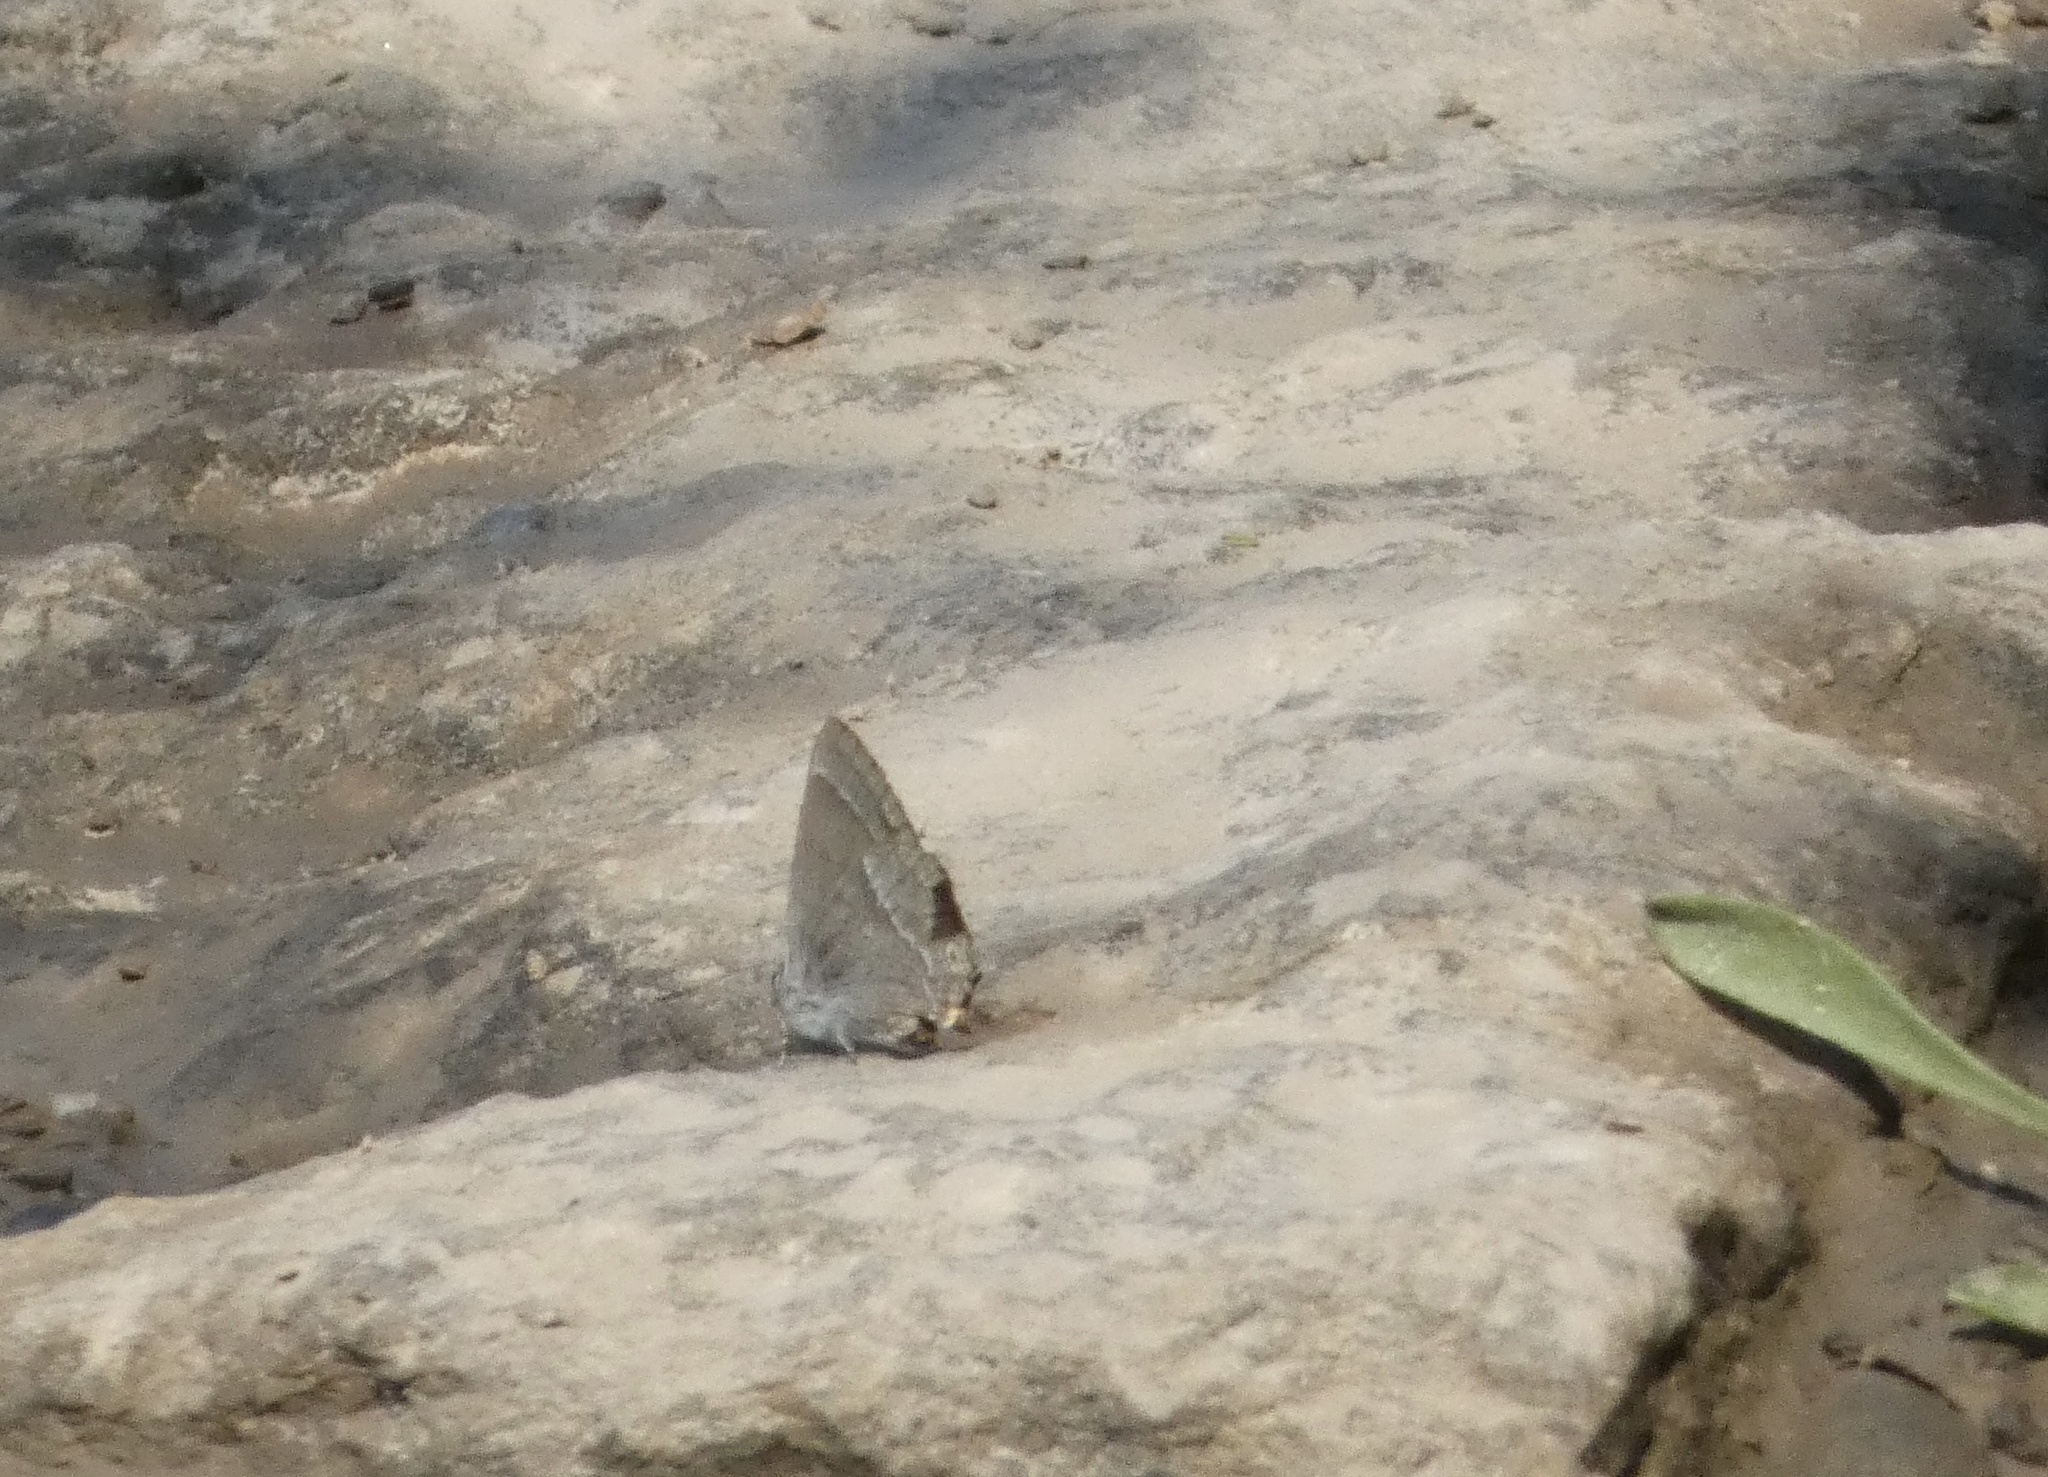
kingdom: Animalia
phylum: Arthropoda
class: Insecta
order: Lepidoptera
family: Lycaenidae
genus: Quercusia
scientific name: Quercusia quercus
